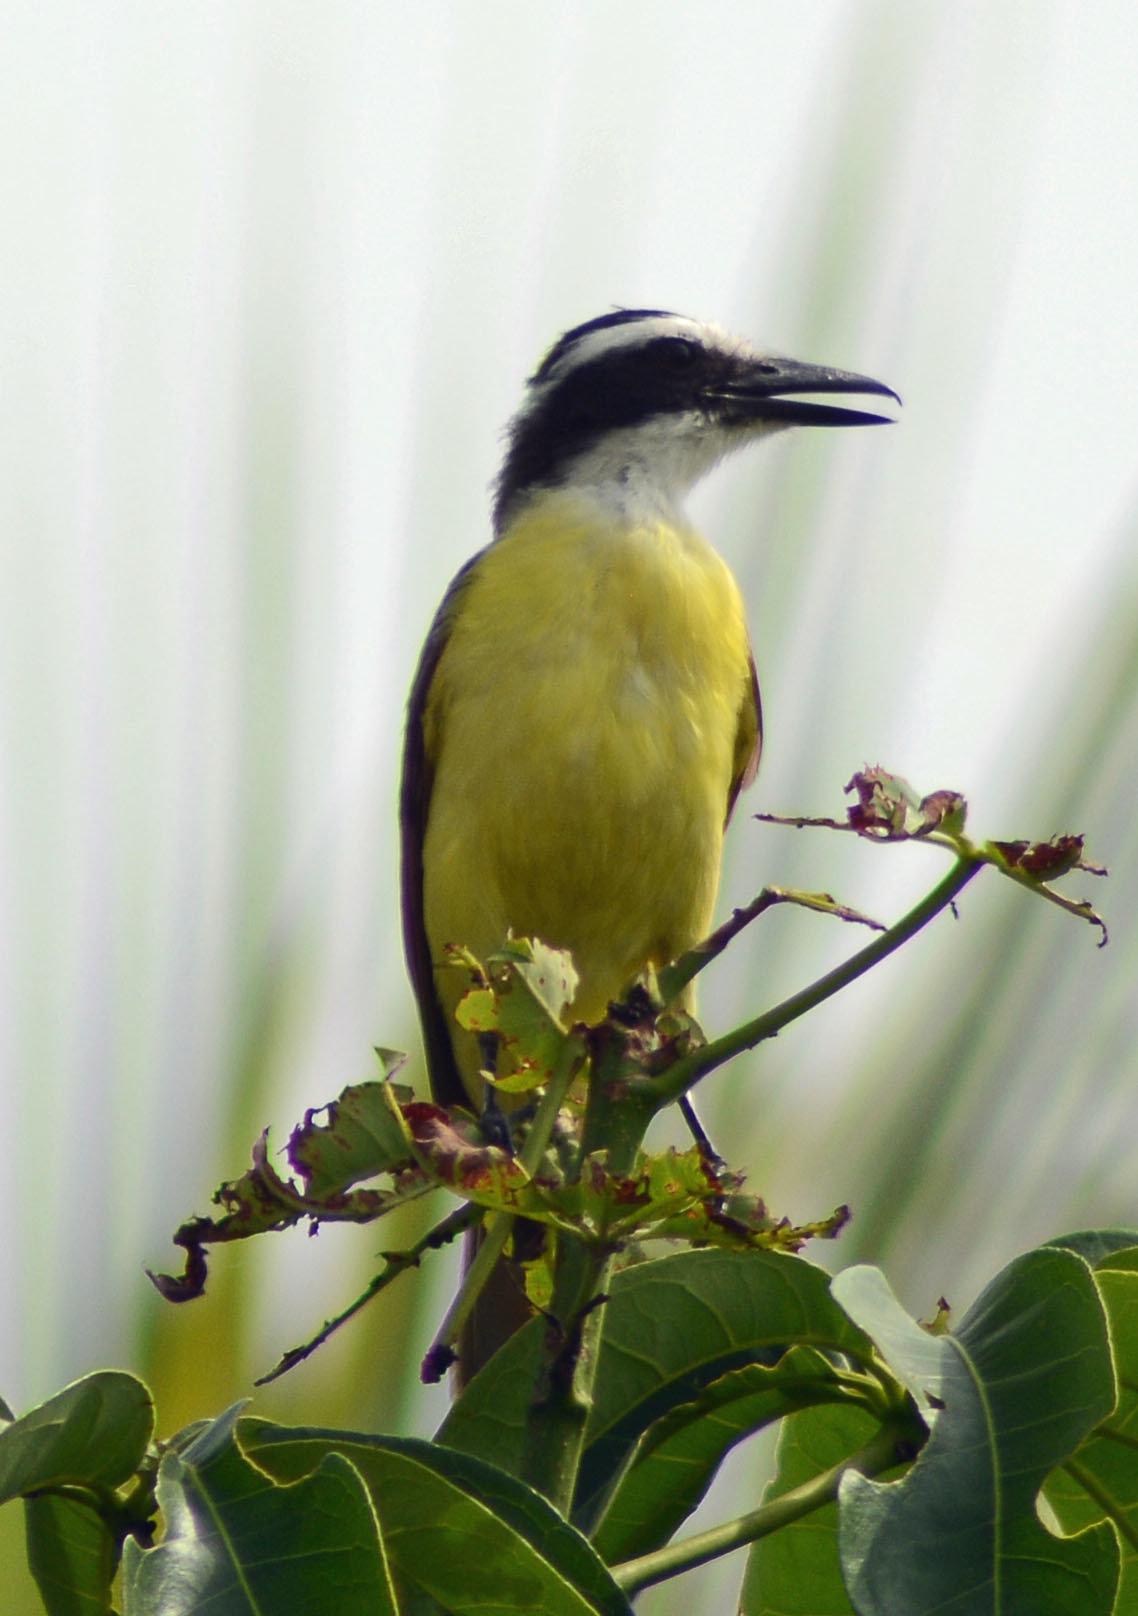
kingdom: Animalia
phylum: Chordata
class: Aves
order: Passeriformes
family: Tyrannidae
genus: Pitangus
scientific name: Pitangus sulphuratus
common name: Great kiskadee
